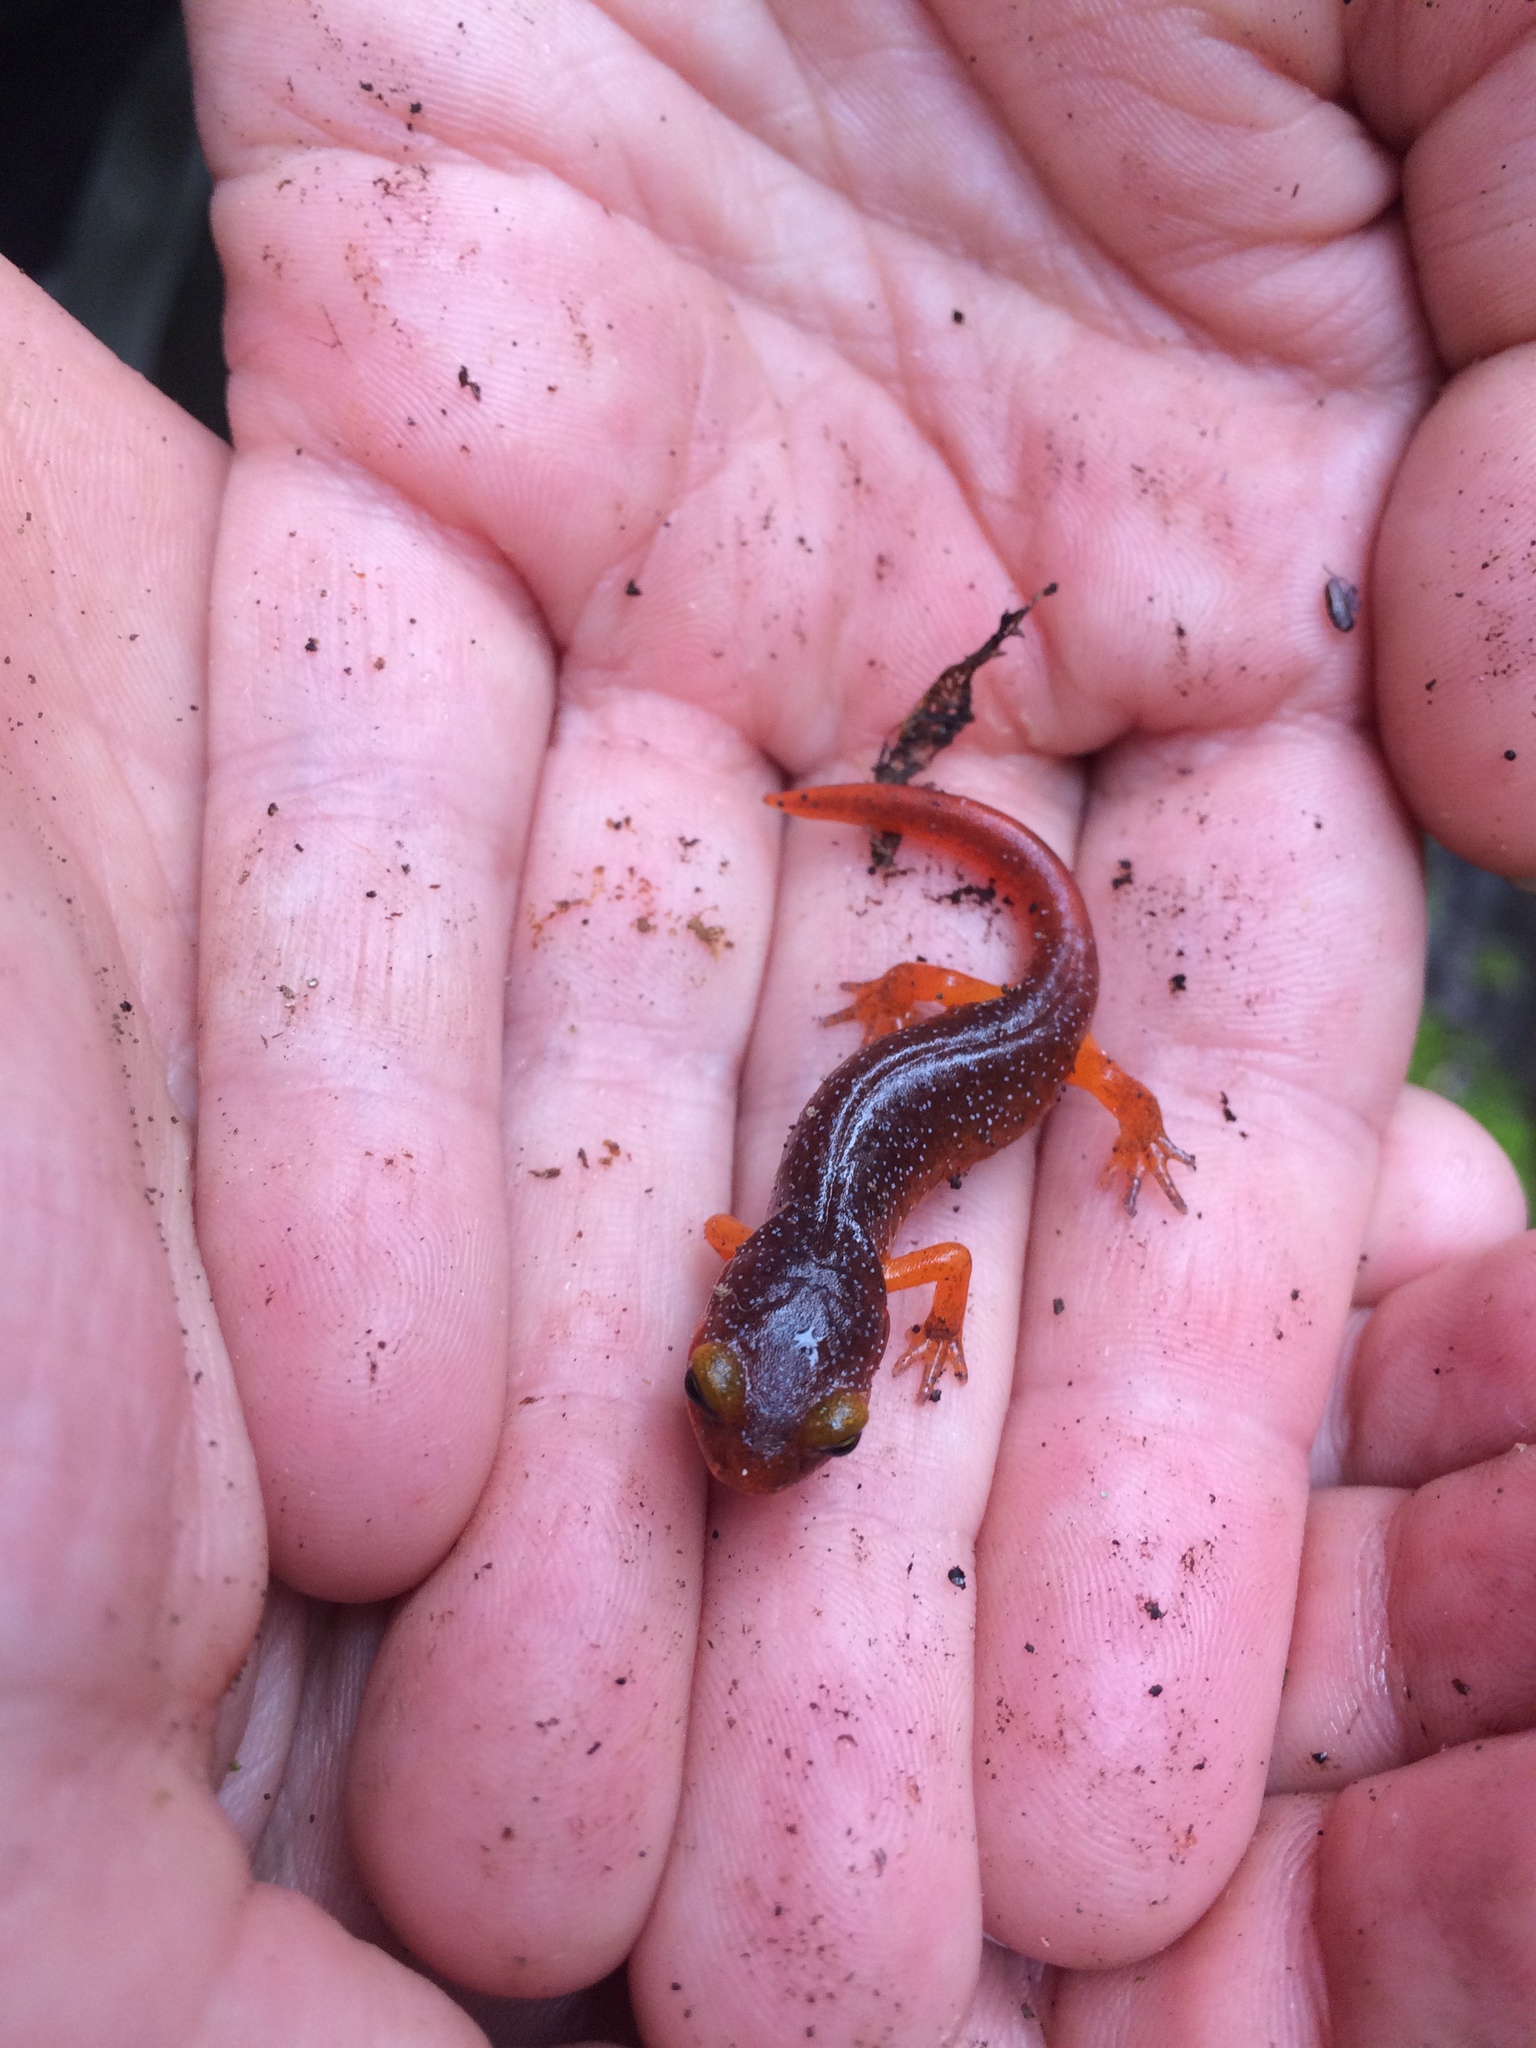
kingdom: Animalia
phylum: Chordata
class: Amphibia
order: Caudata
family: Plethodontidae
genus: Ensatina
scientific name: Ensatina eschscholtzii
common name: Ensatina
